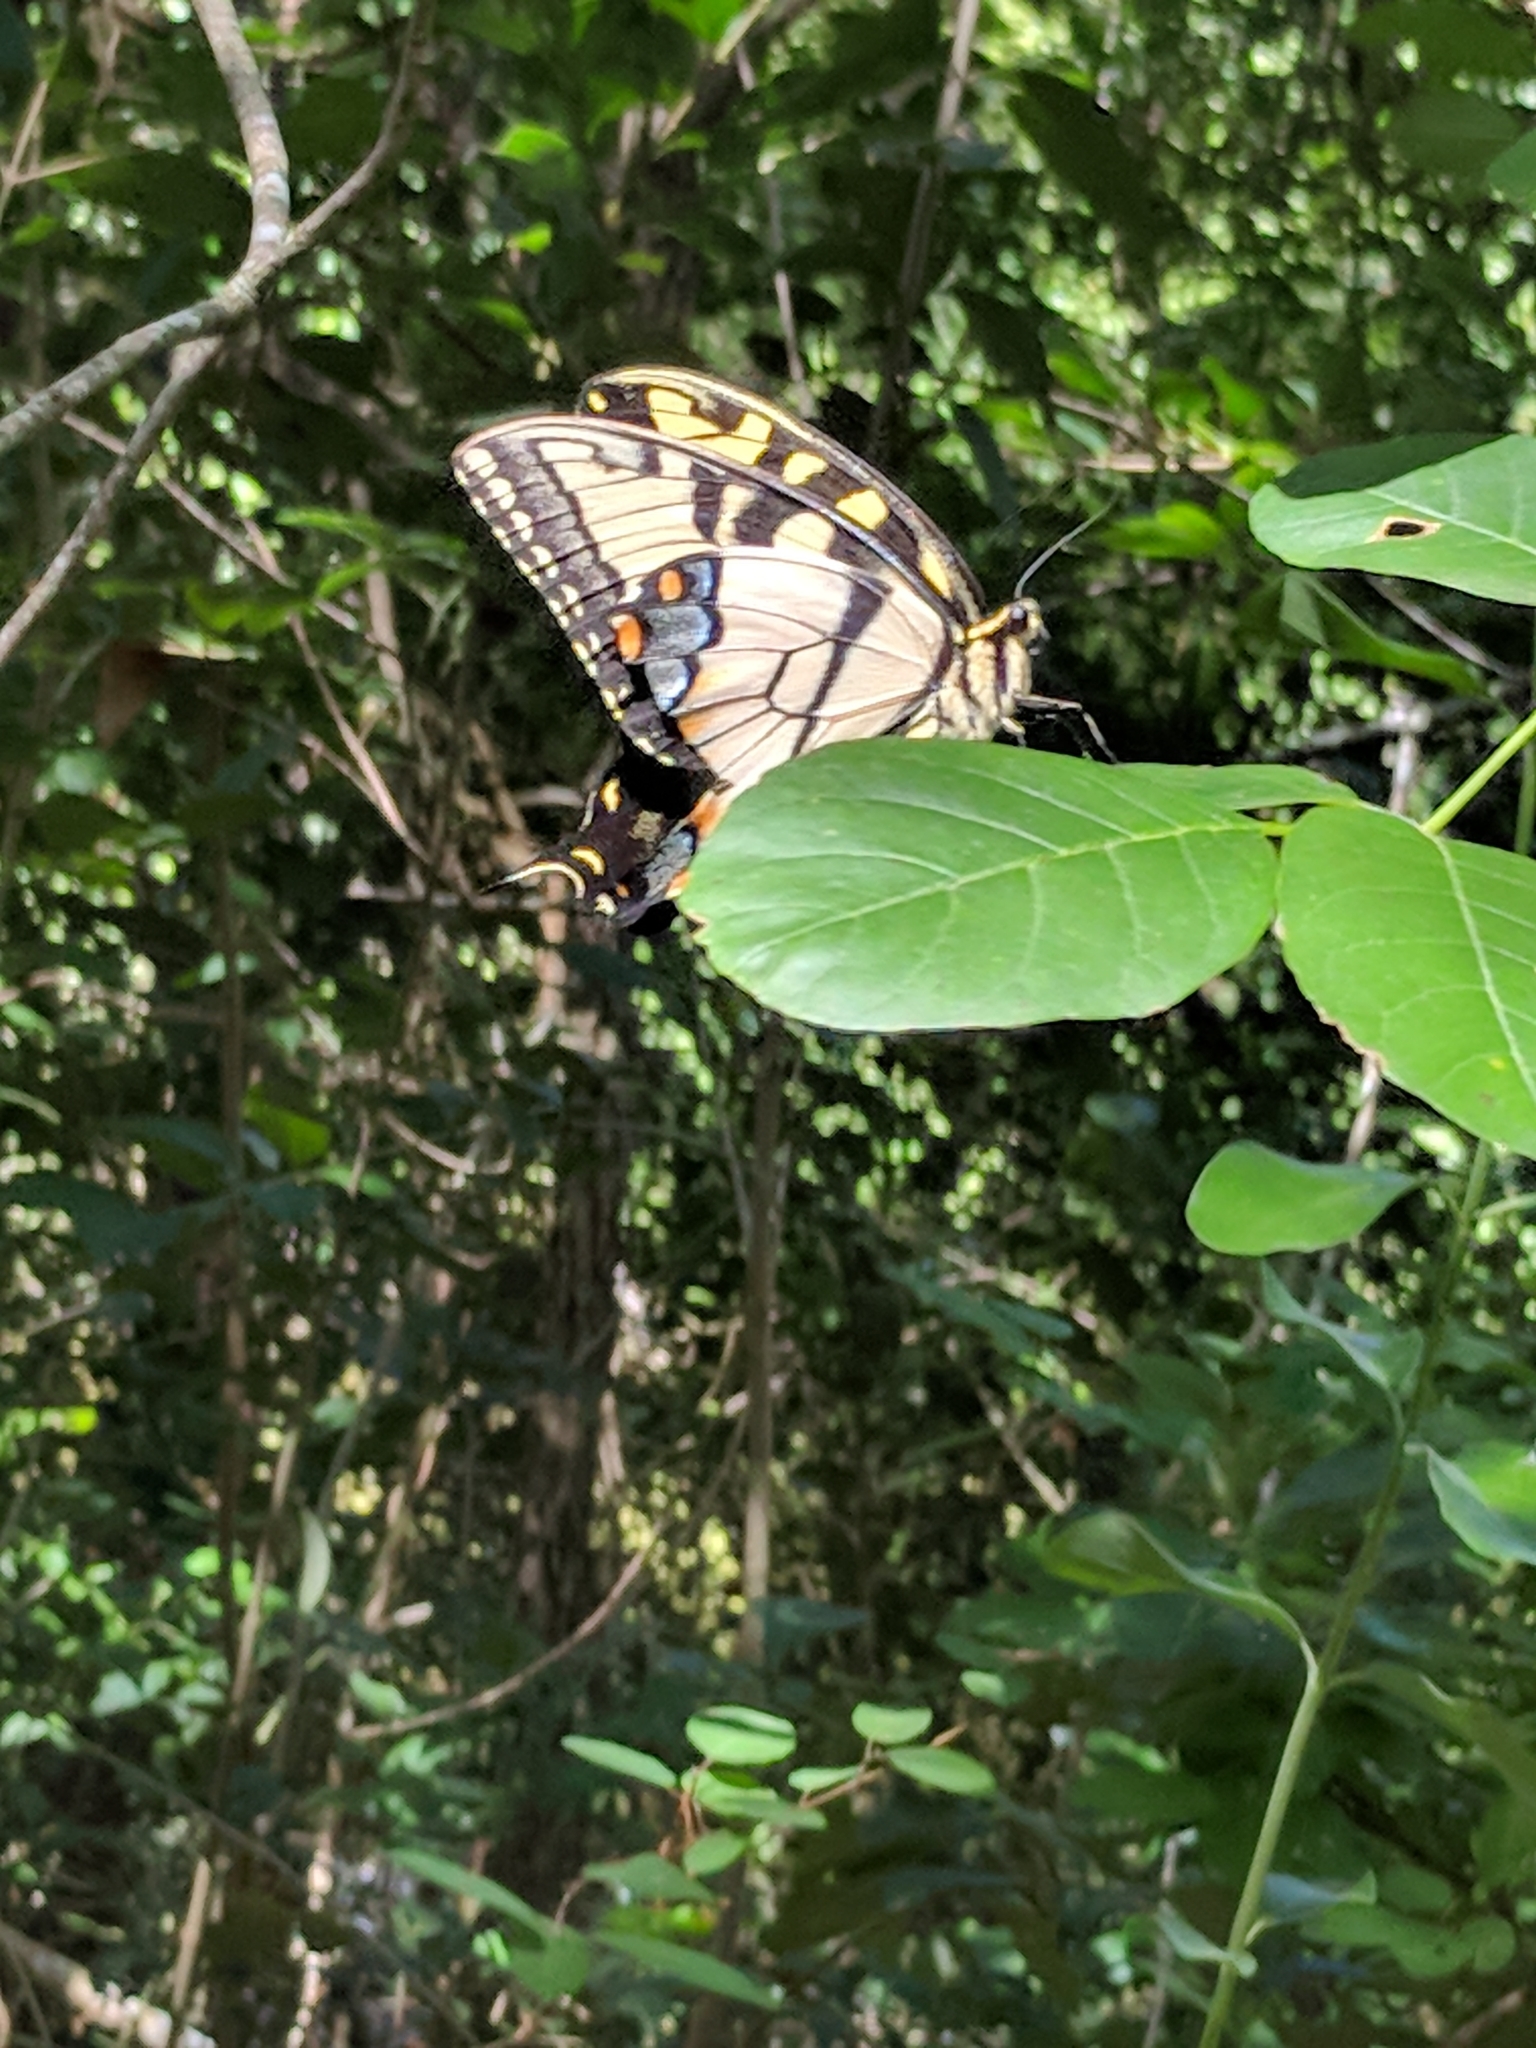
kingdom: Animalia
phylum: Arthropoda
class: Insecta
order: Lepidoptera
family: Papilionidae
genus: Papilio
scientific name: Papilio glaucus
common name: Tiger swallowtail
